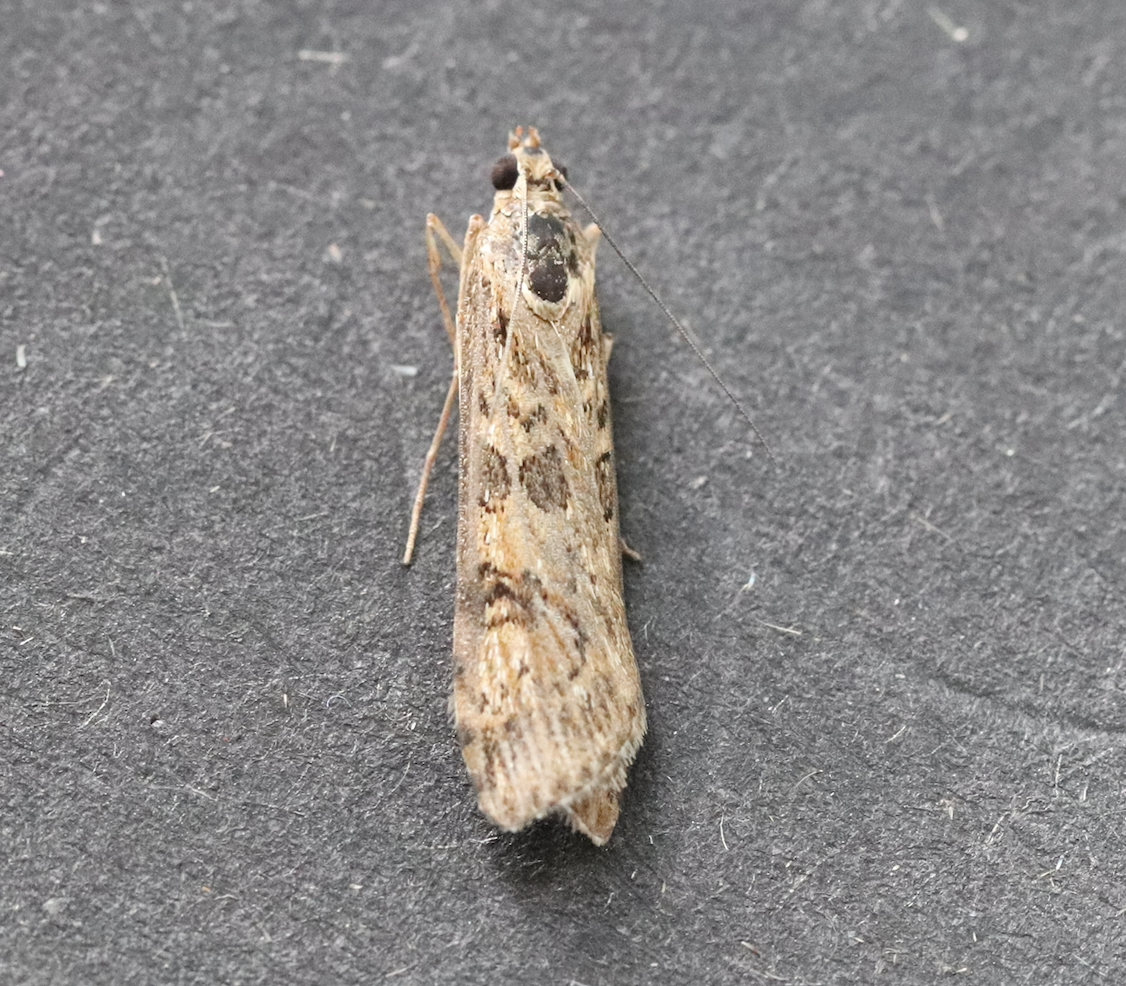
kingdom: Animalia
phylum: Arthropoda
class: Insecta
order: Lepidoptera
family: Crambidae
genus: Nomophila
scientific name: Nomophila noctuella
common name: Rush veneer
